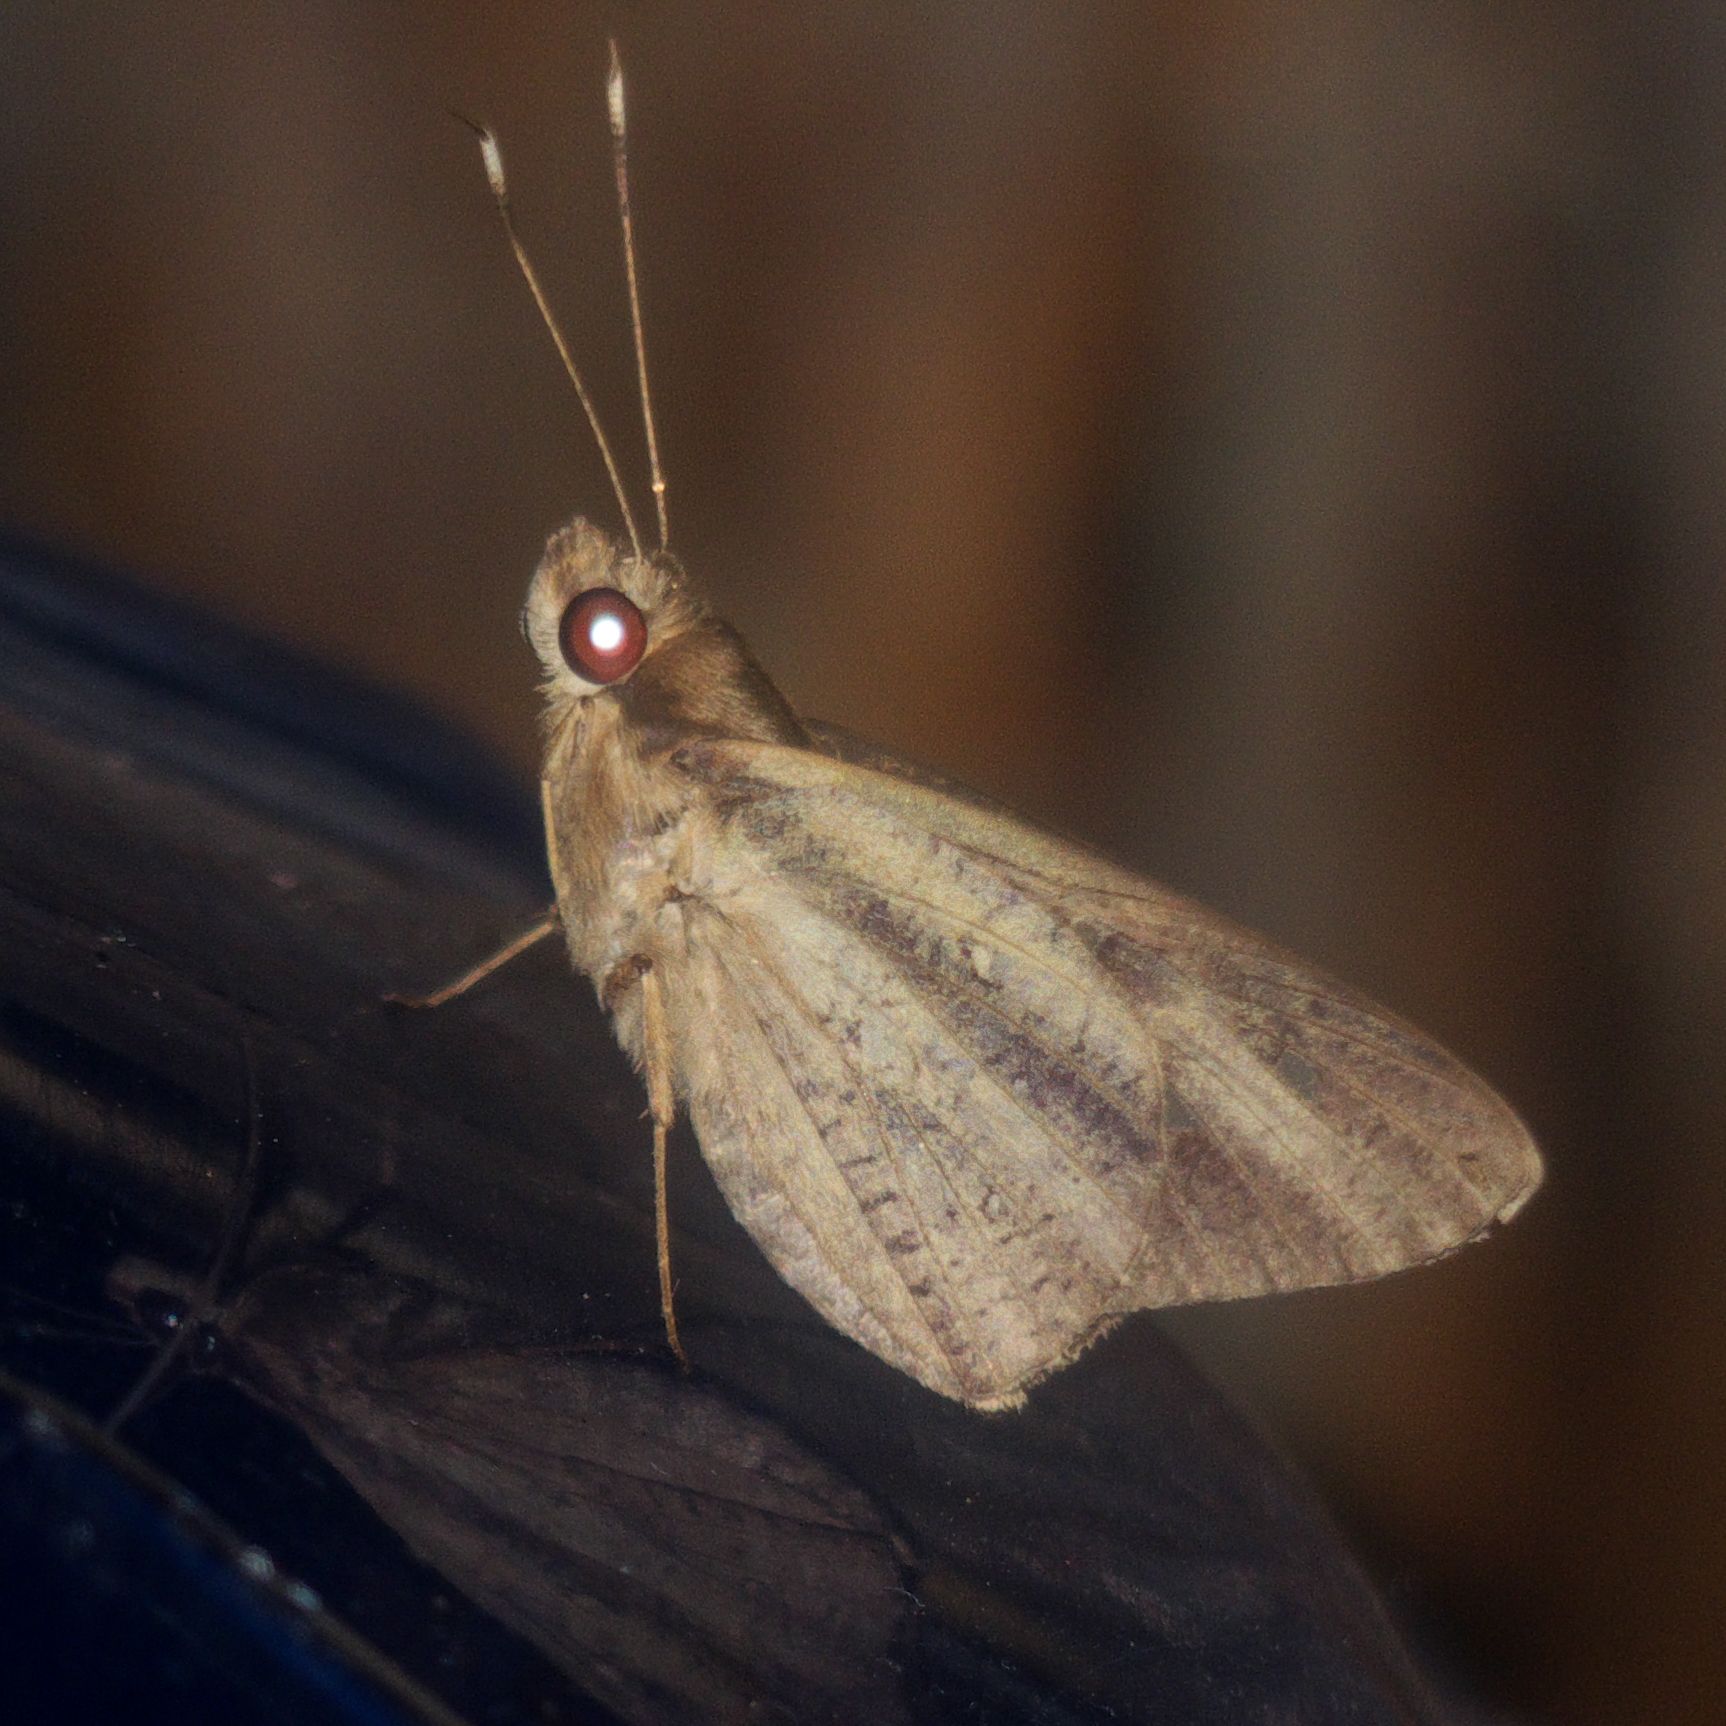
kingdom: Animalia
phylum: Arthropoda
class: Insecta
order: Lepidoptera
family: Hesperiidae
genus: Hidari
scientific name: Hidari bhawani
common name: Veined palmer
